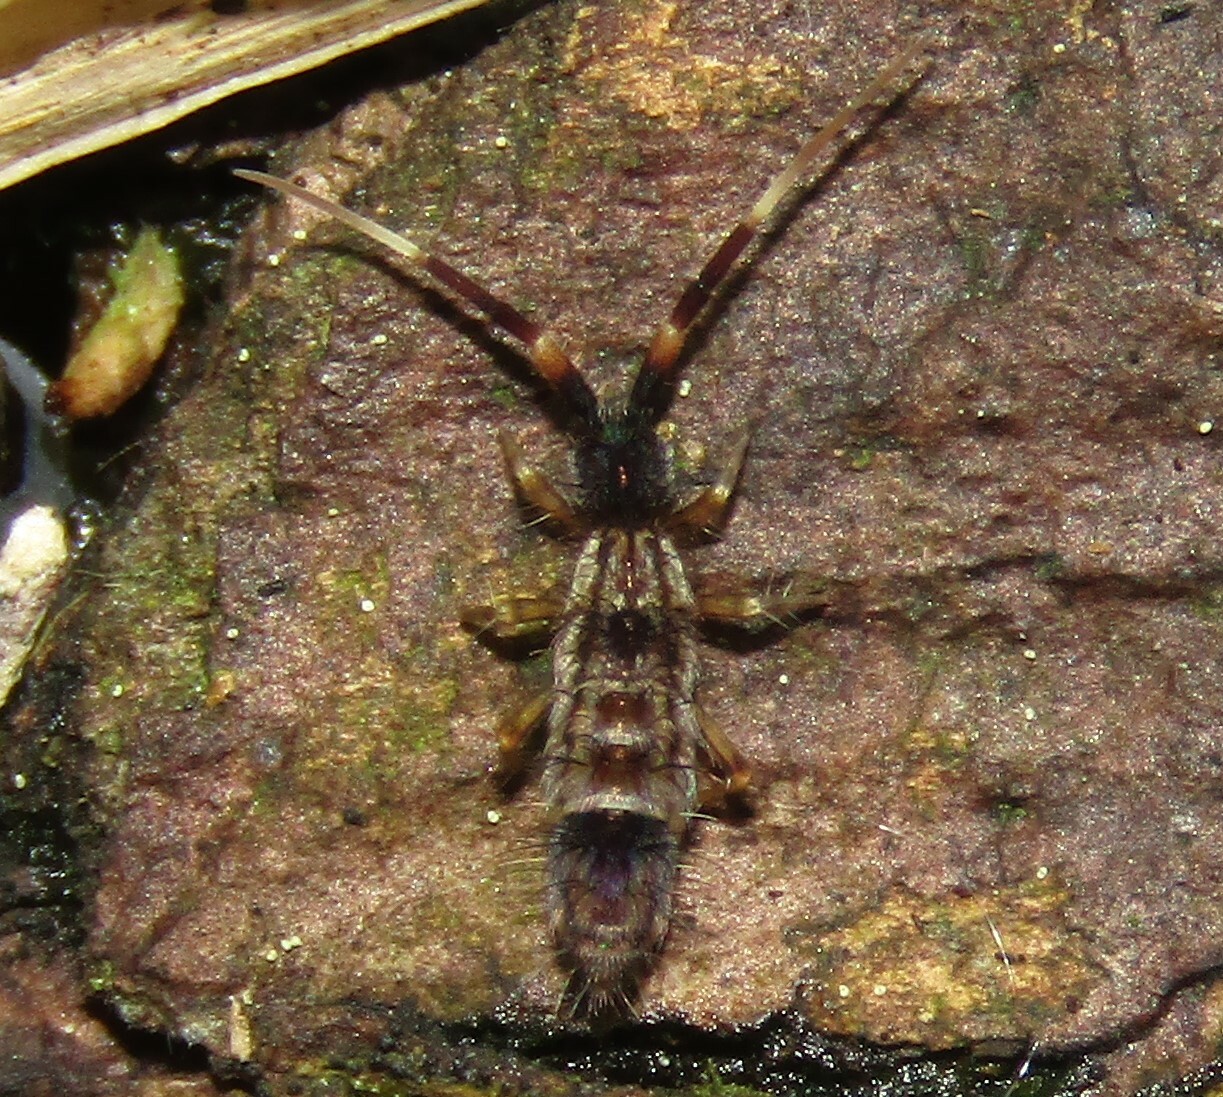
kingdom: Animalia
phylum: Arthropoda
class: Collembola
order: Entomobryomorpha
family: Entomobryidae
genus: Entomobrya
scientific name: Entomobrya nivalis
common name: Cosmopolitan springtail
